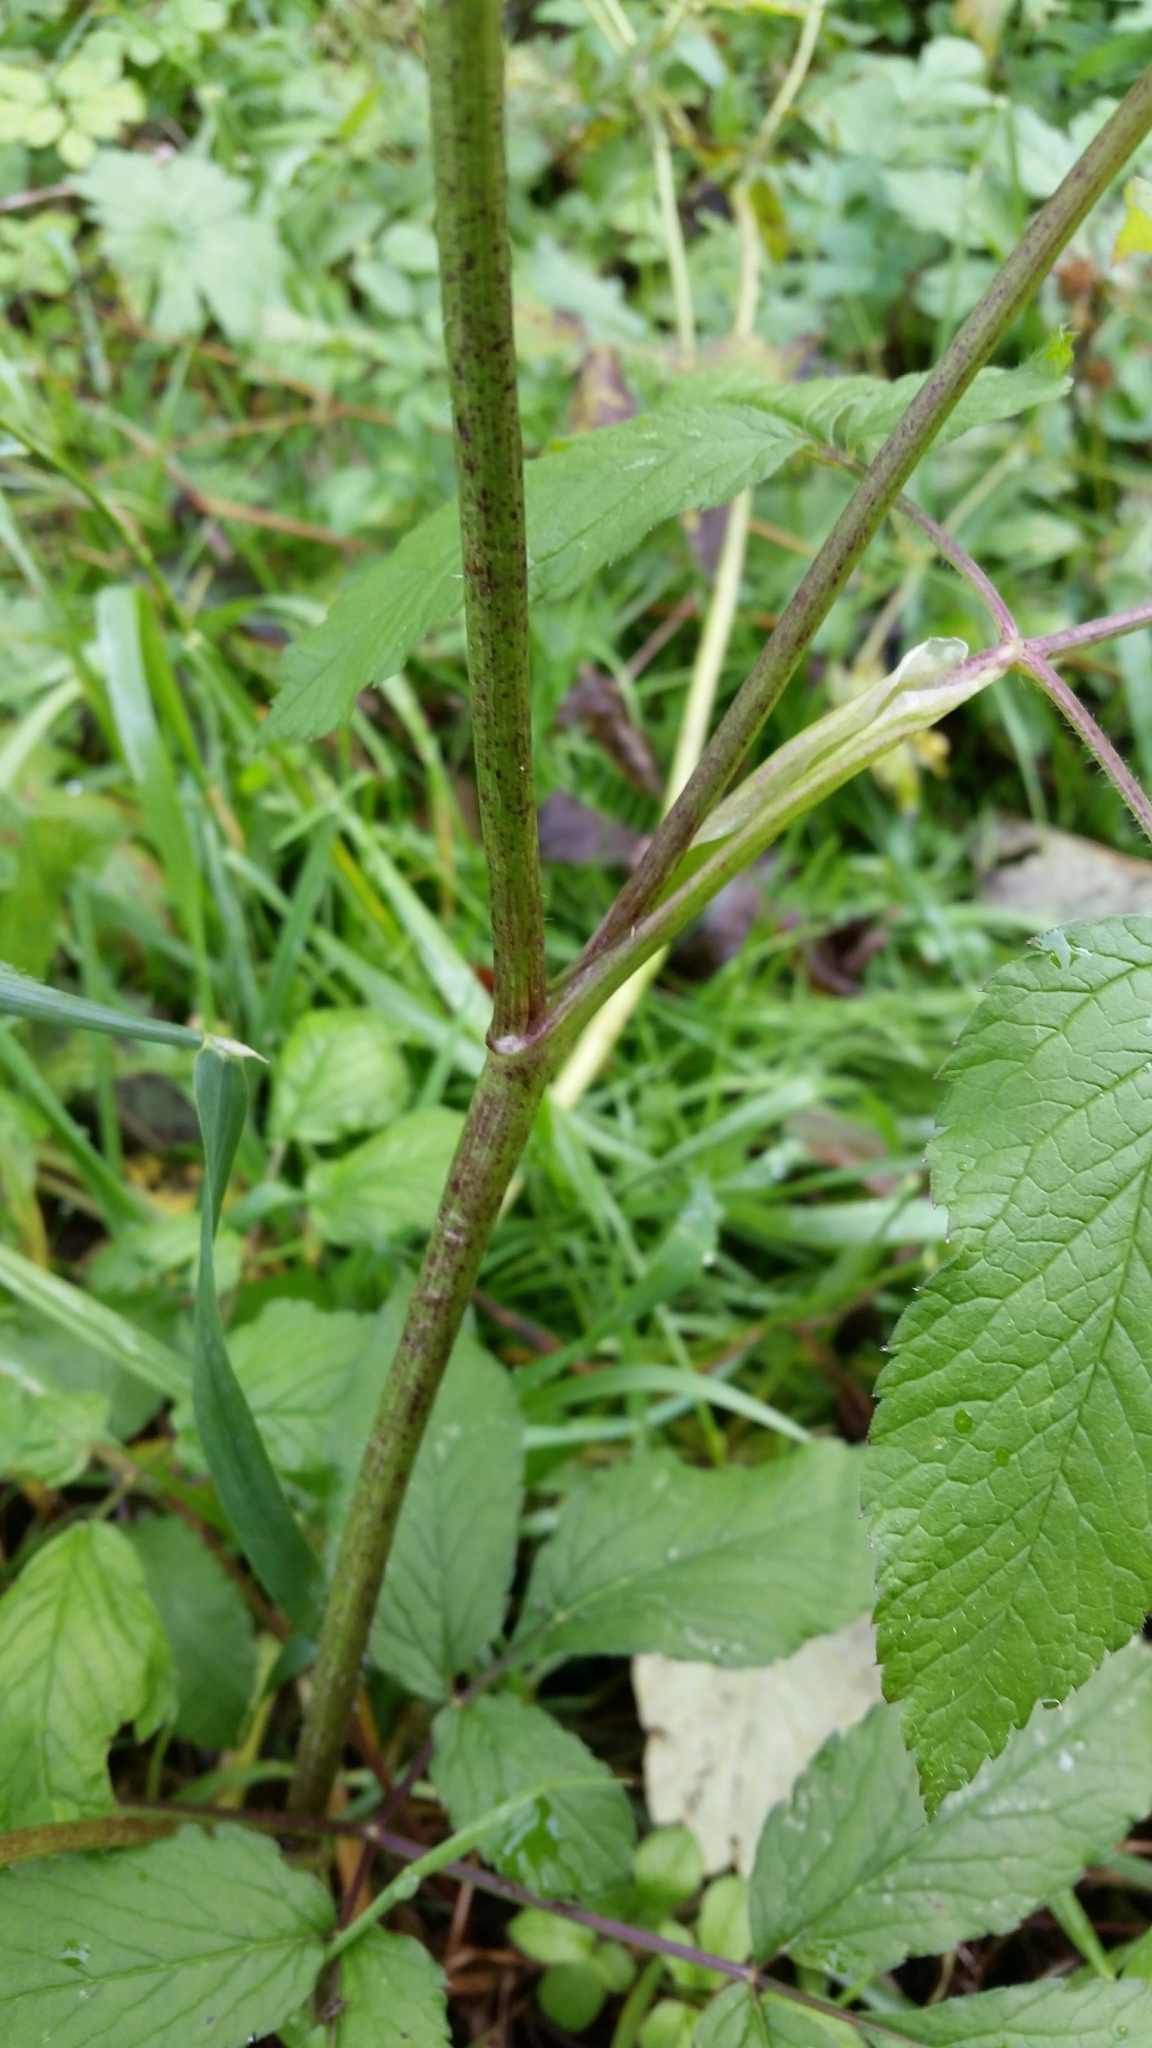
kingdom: Plantae
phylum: Tracheophyta
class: Magnoliopsida
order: Apiales
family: Apiaceae
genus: Chaerophyllum
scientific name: Chaerophyllum aromaticum
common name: Broadleaf chervil
